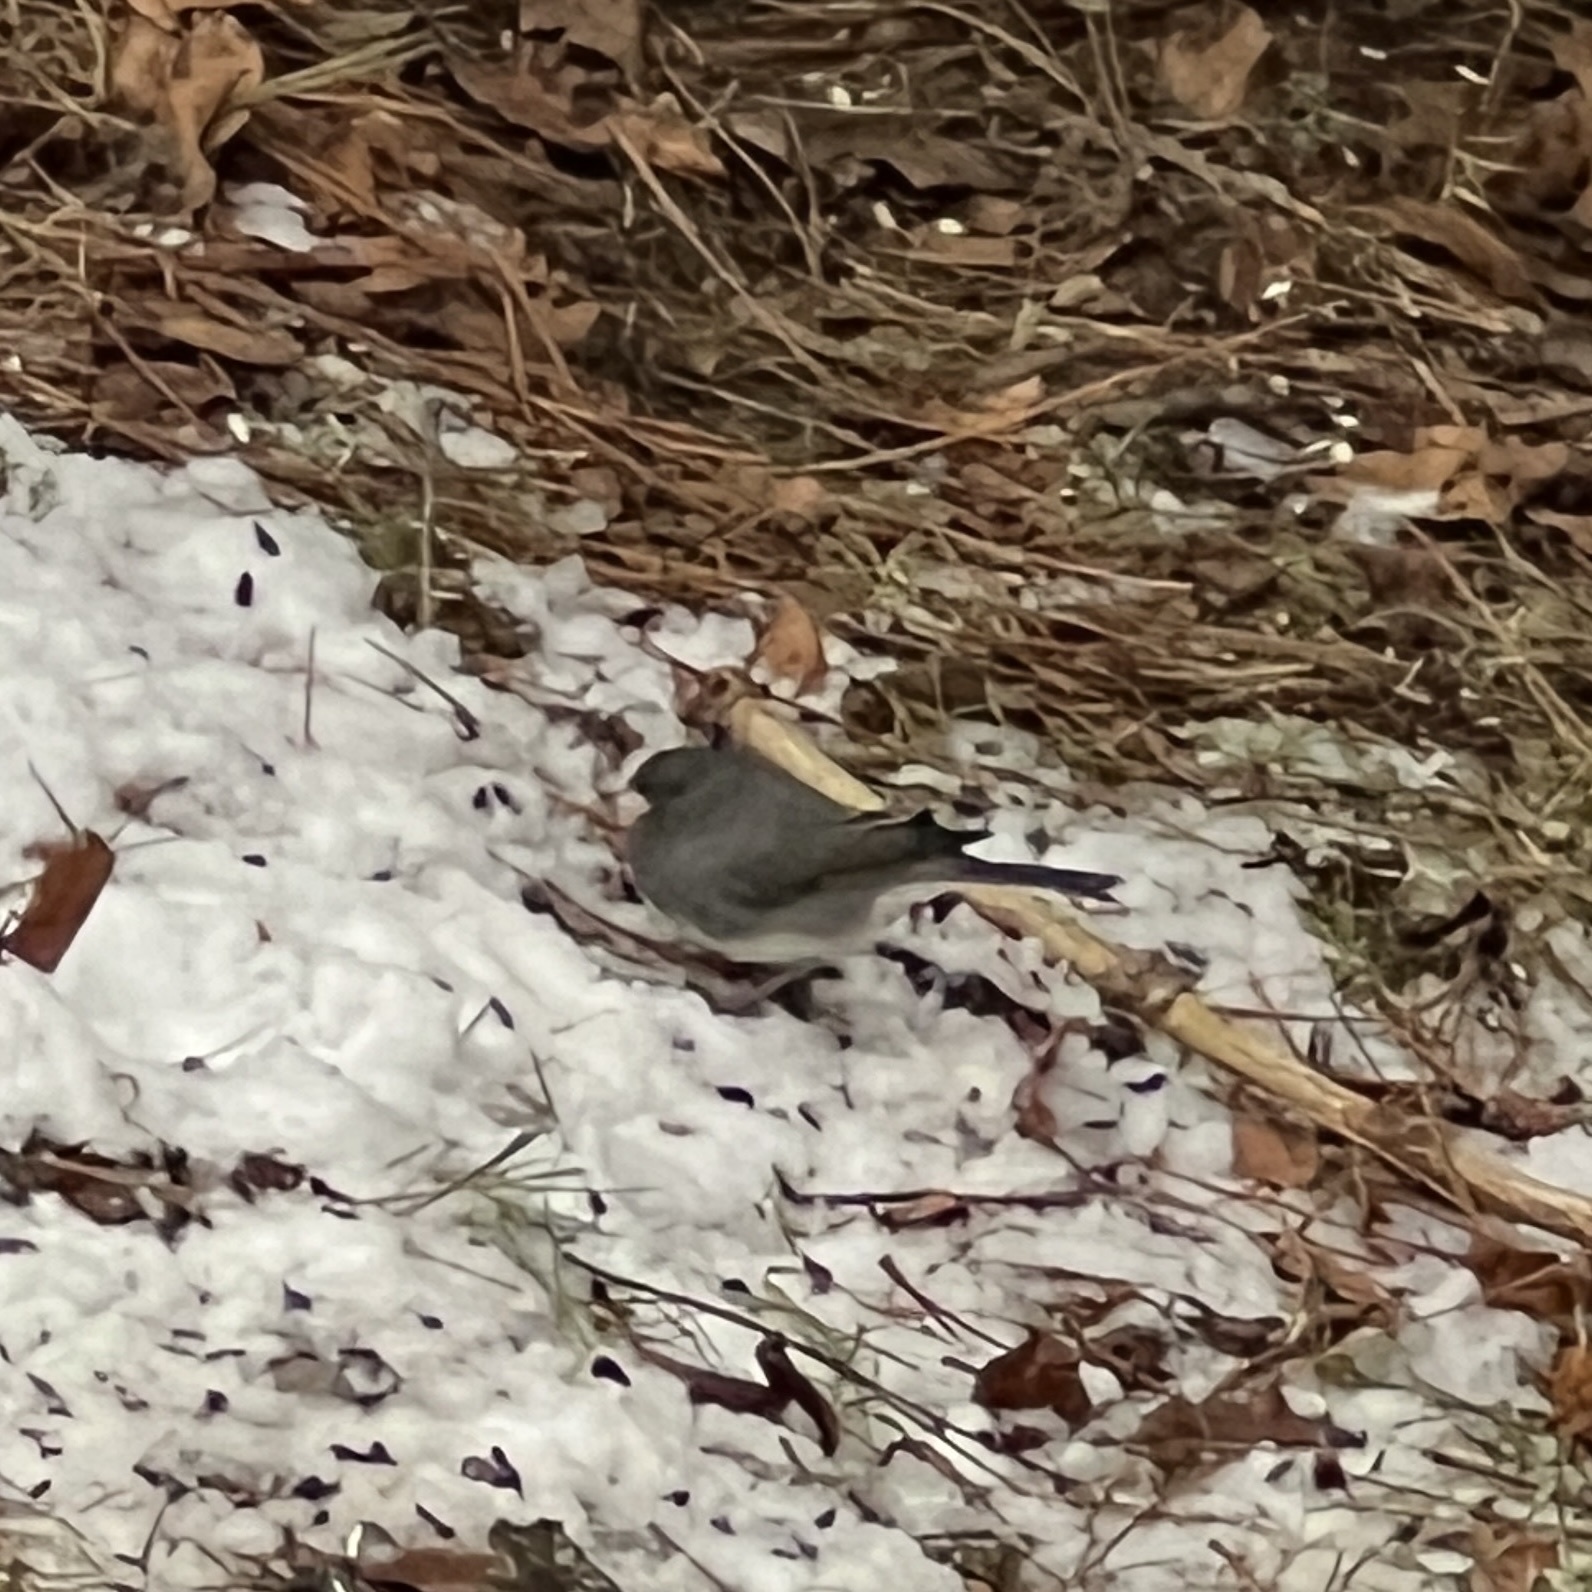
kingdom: Animalia
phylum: Chordata
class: Aves
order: Passeriformes
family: Passerellidae
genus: Junco
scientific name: Junco hyemalis
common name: Dark-eyed junco
